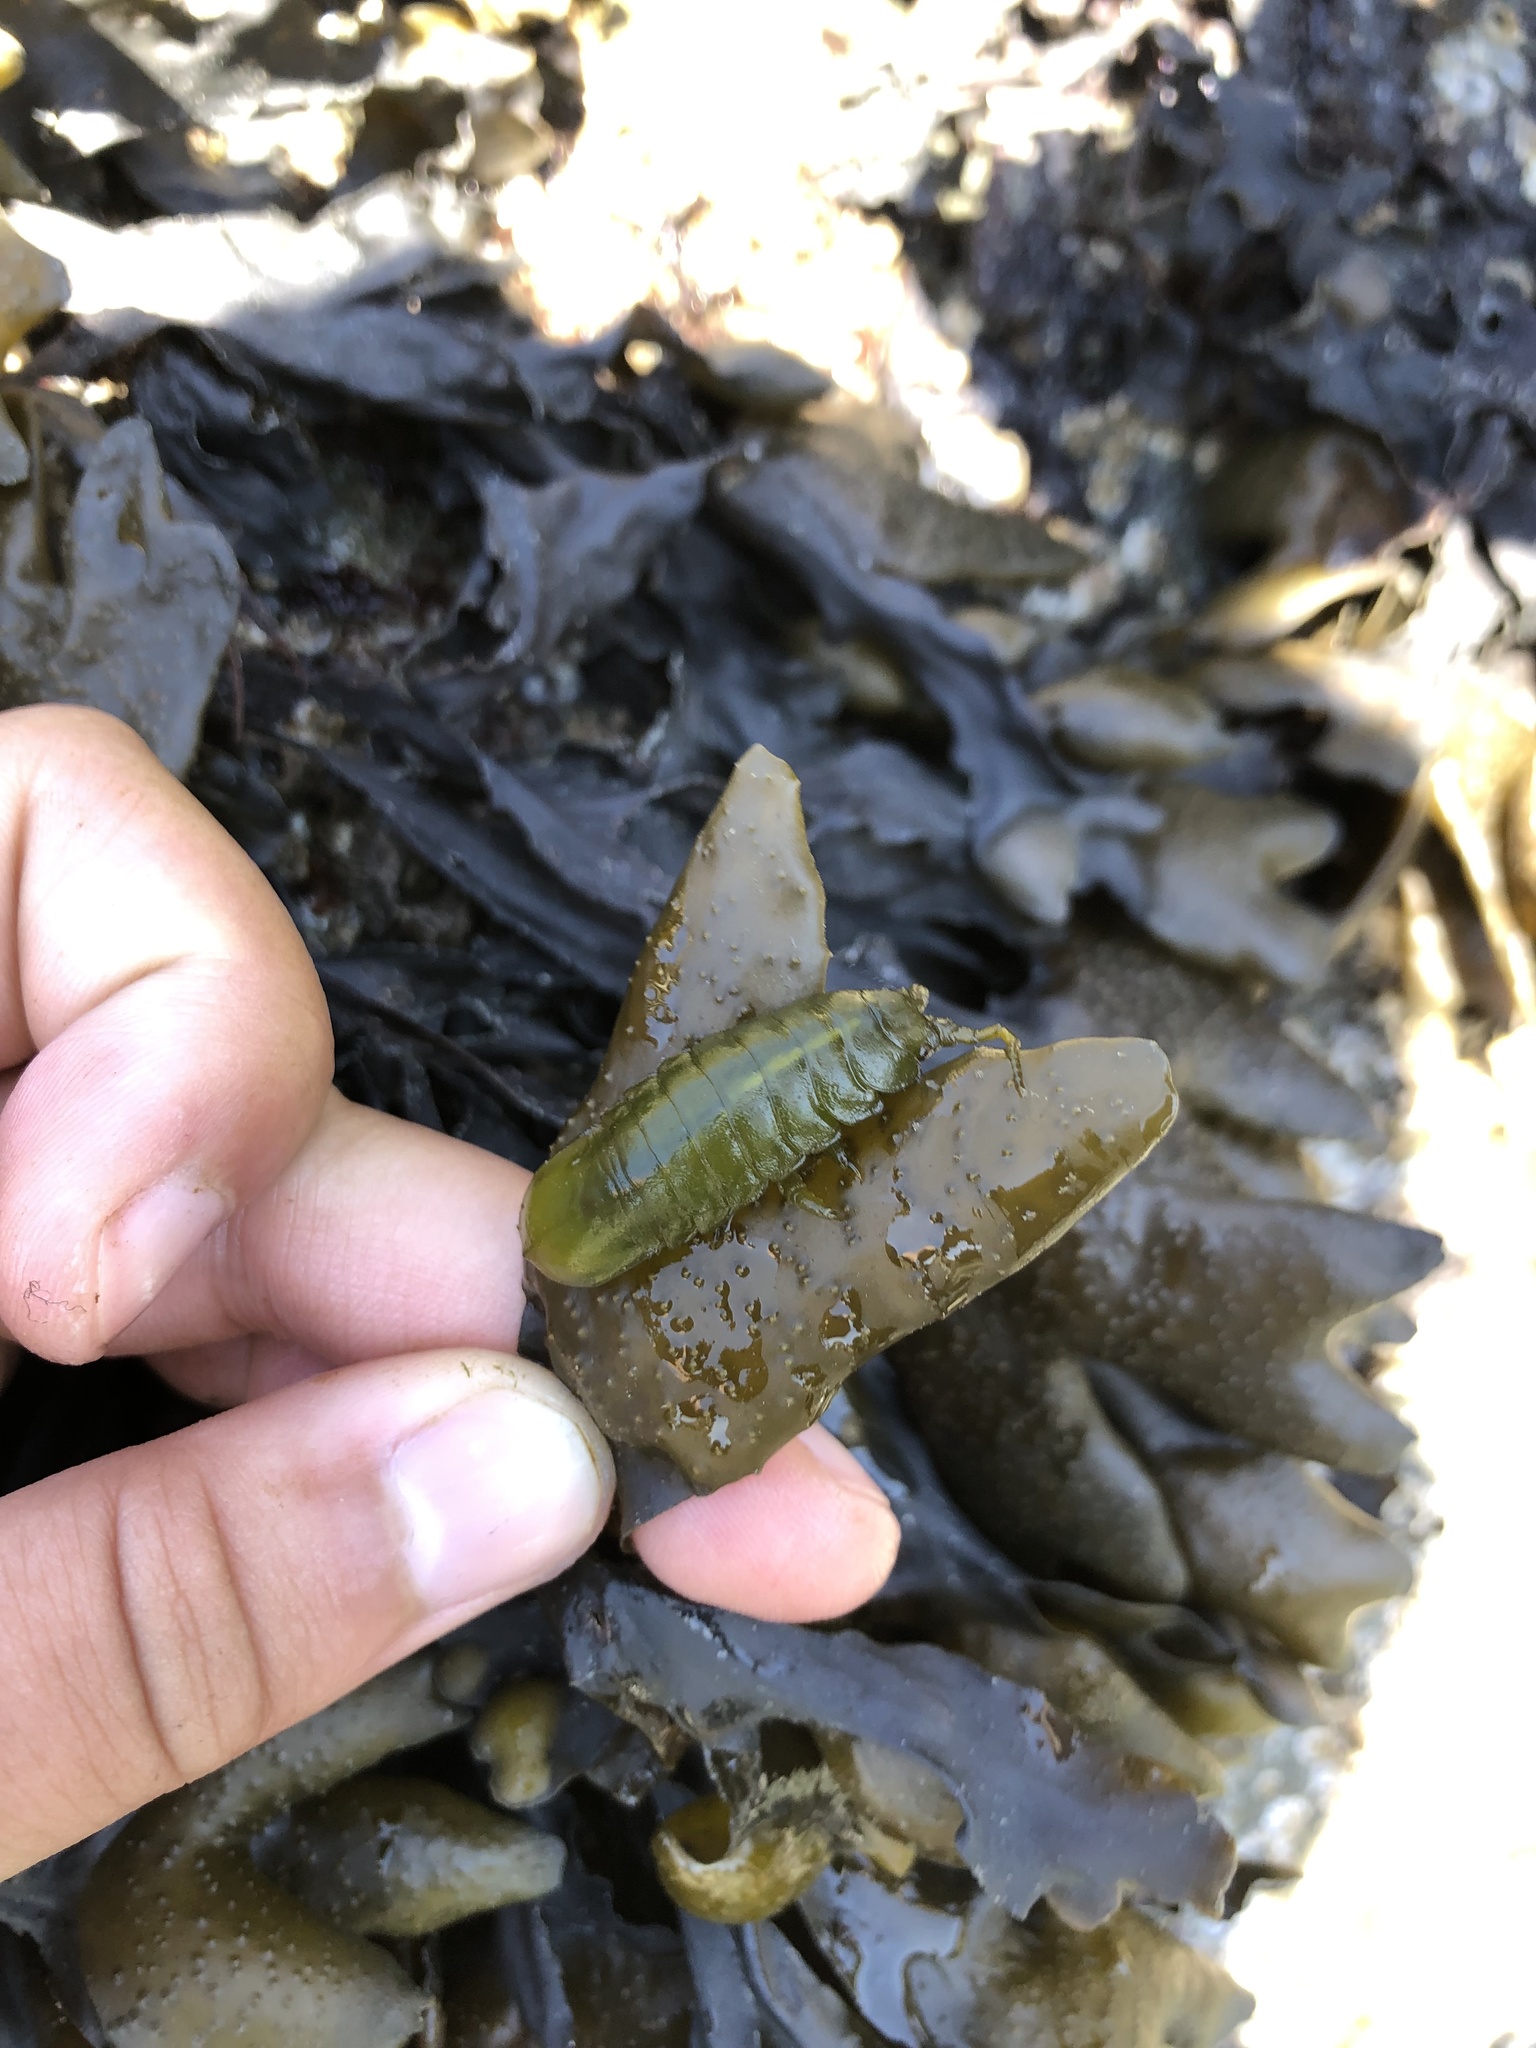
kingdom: Animalia
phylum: Arthropoda
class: Malacostraca
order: Isopoda
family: Idoteidae
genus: Pentidotea
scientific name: Pentidotea wosnesenskii
